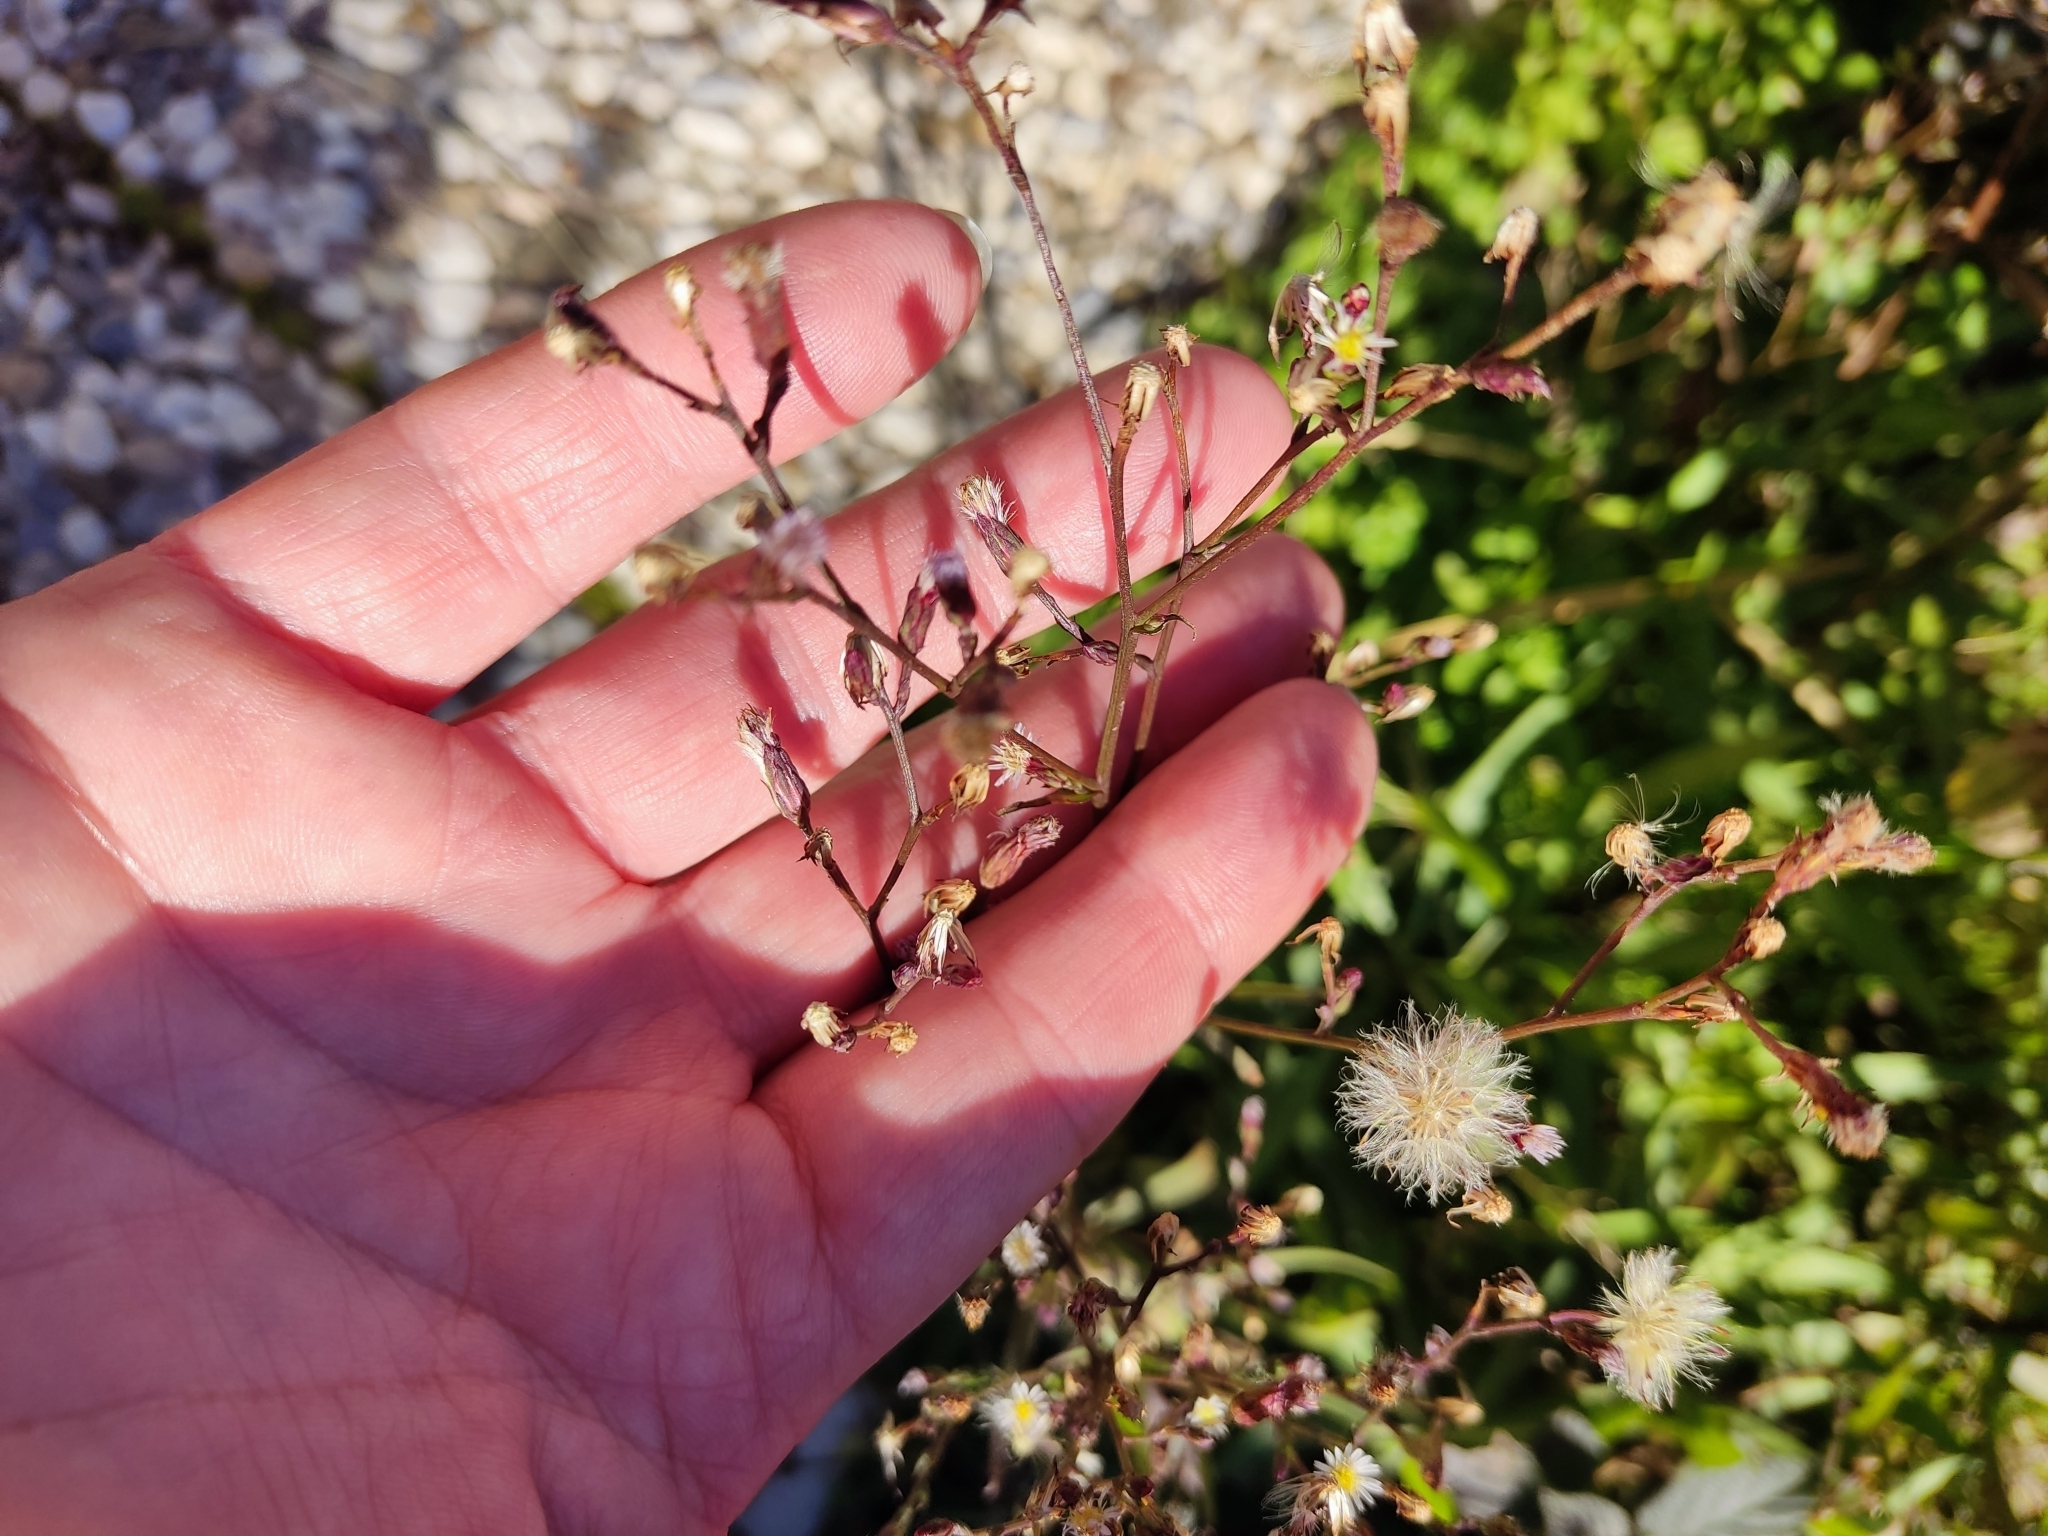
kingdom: Plantae
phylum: Tracheophyta
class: Magnoliopsida
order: Asterales
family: Asteraceae
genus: Symphyotrichum
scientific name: Symphyotrichum subulatum
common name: Annual saltmarsh aster
